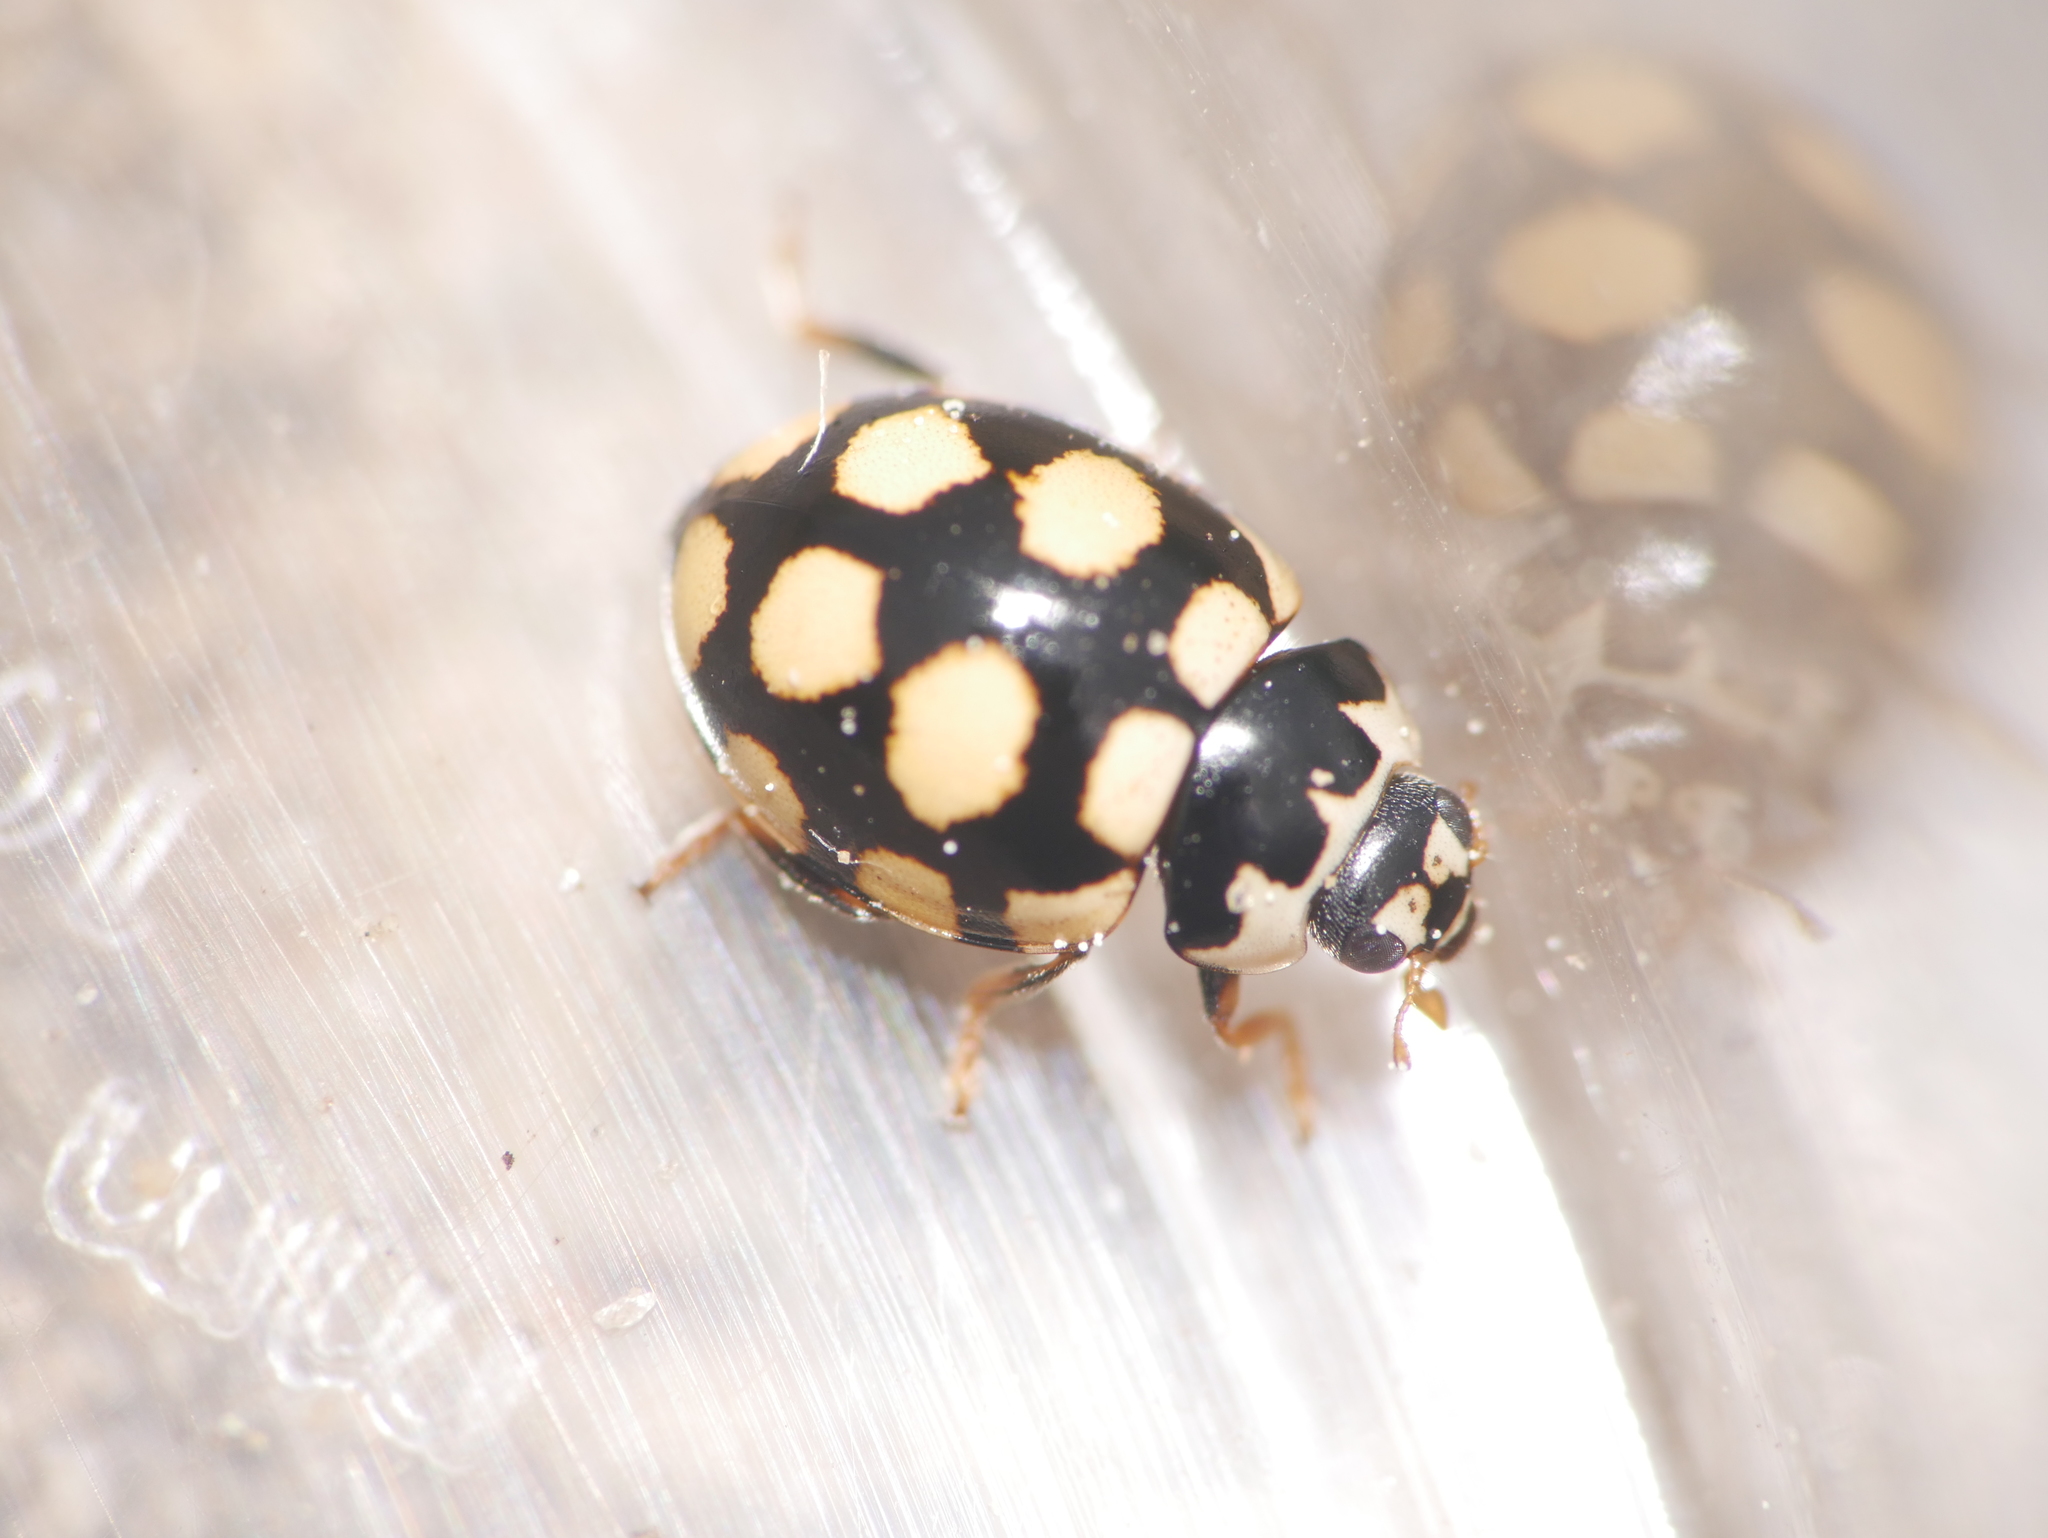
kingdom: Animalia
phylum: Arthropoda
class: Insecta
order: Coleoptera
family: Coccinellidae
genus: Coccinula
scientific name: Coccinula quatuordecimpustulata
